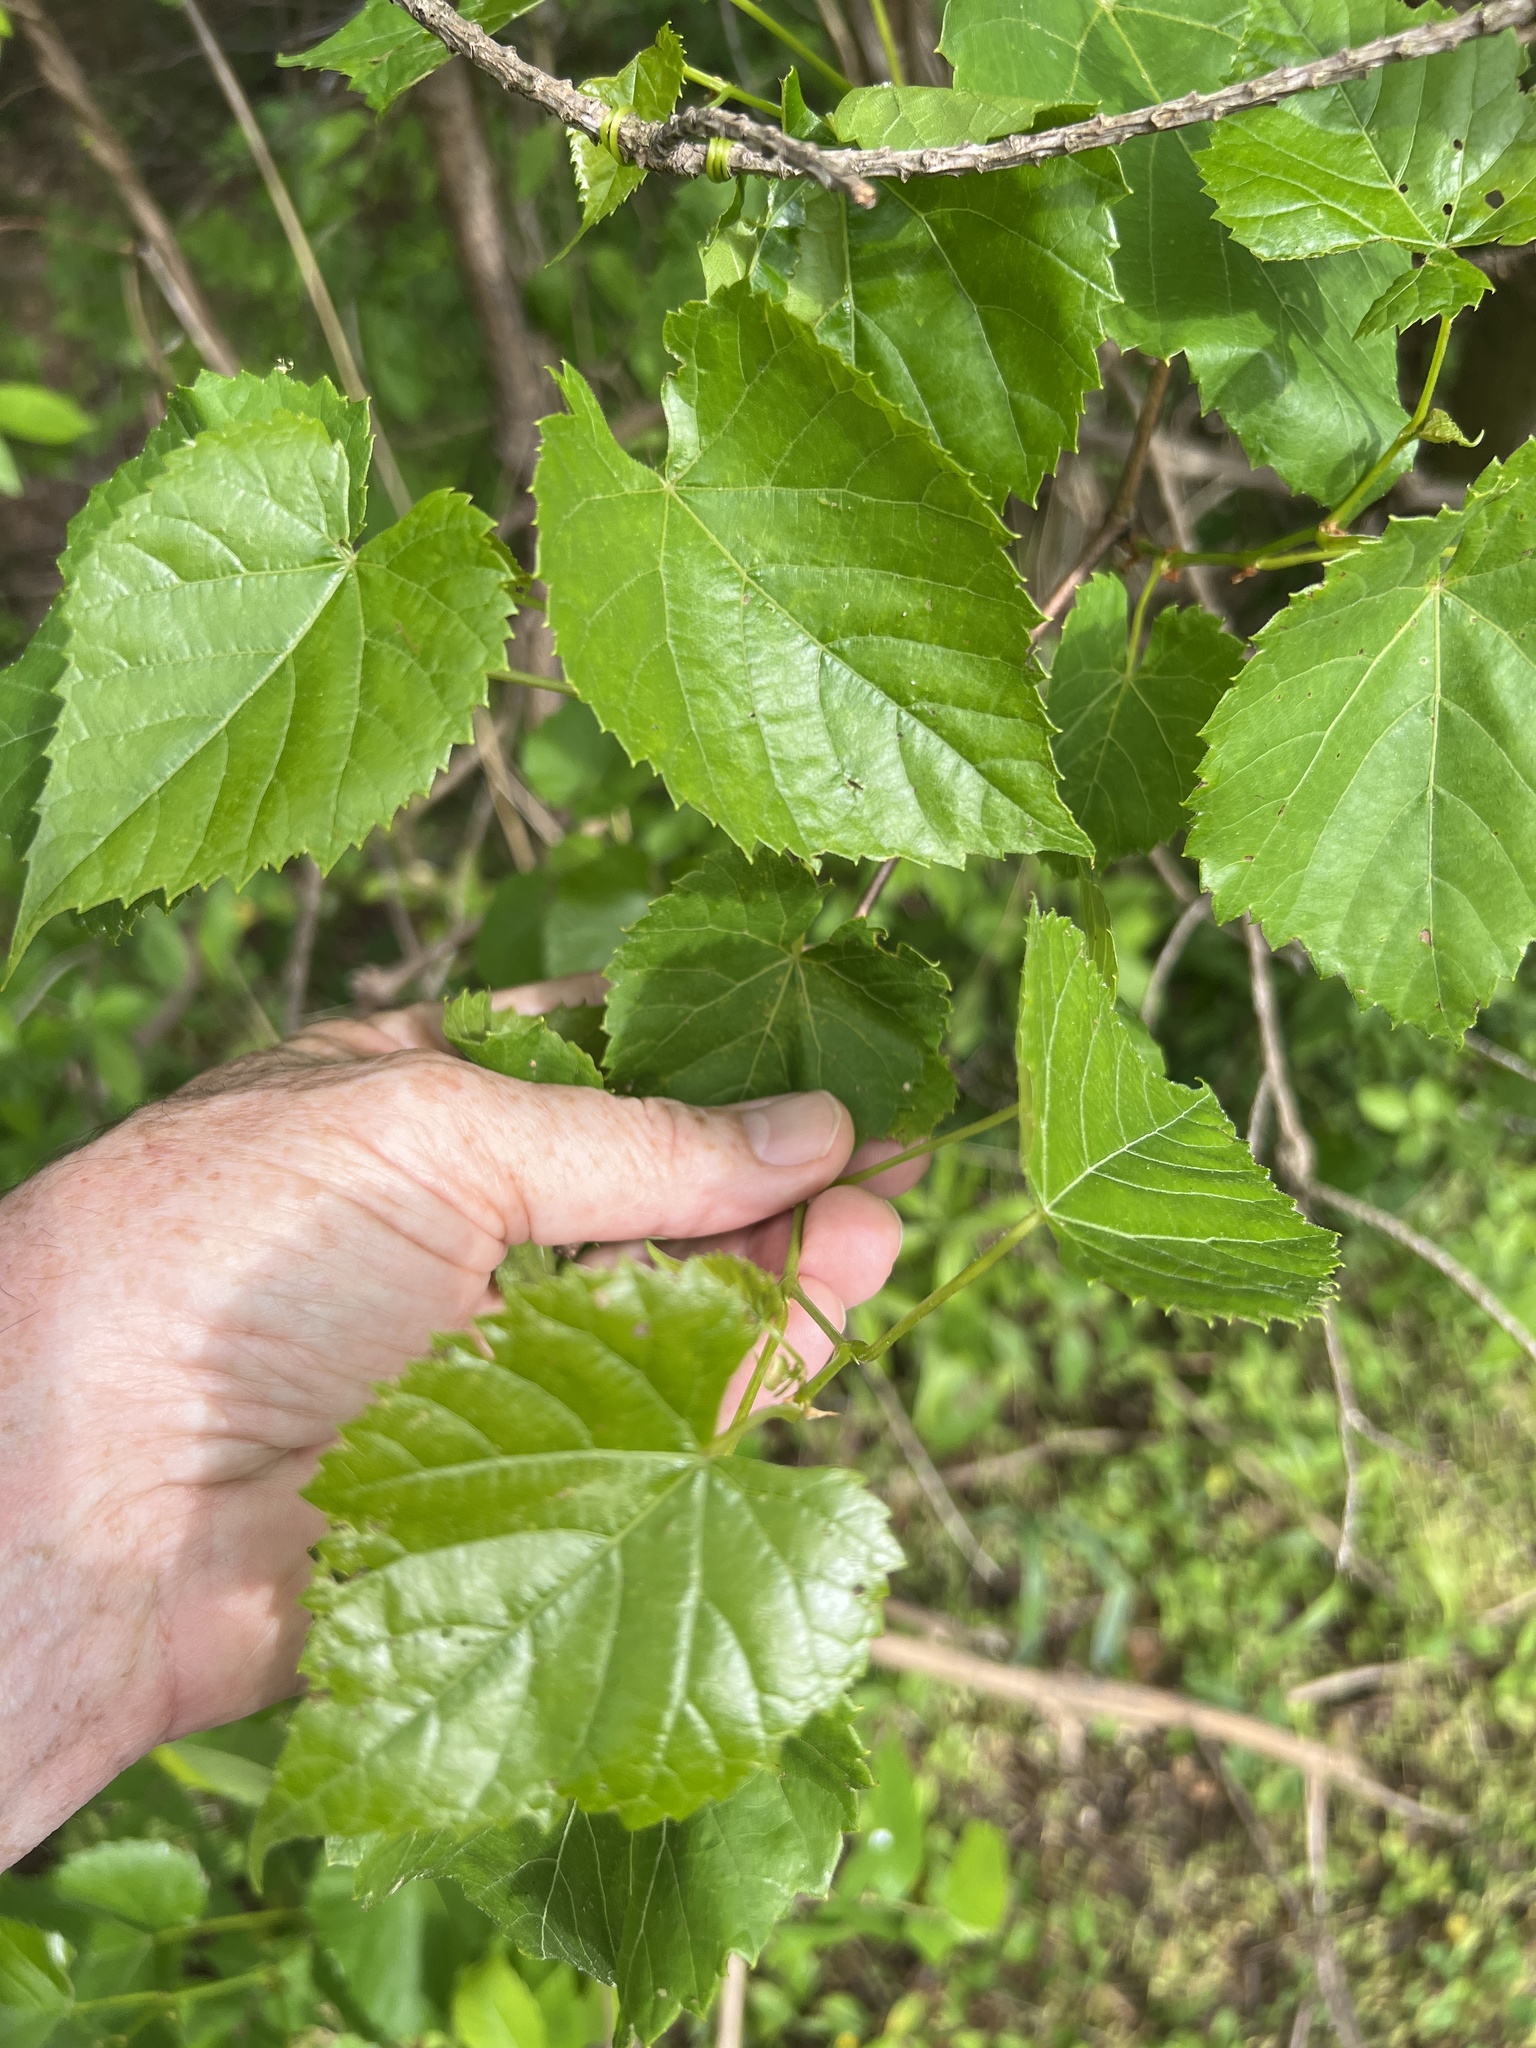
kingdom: Plantae
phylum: Tracheophyta
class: Magnoliopsida
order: Vitales
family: Vitaceae
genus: Vitis
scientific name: Vitis vulpina
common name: Frost grape
